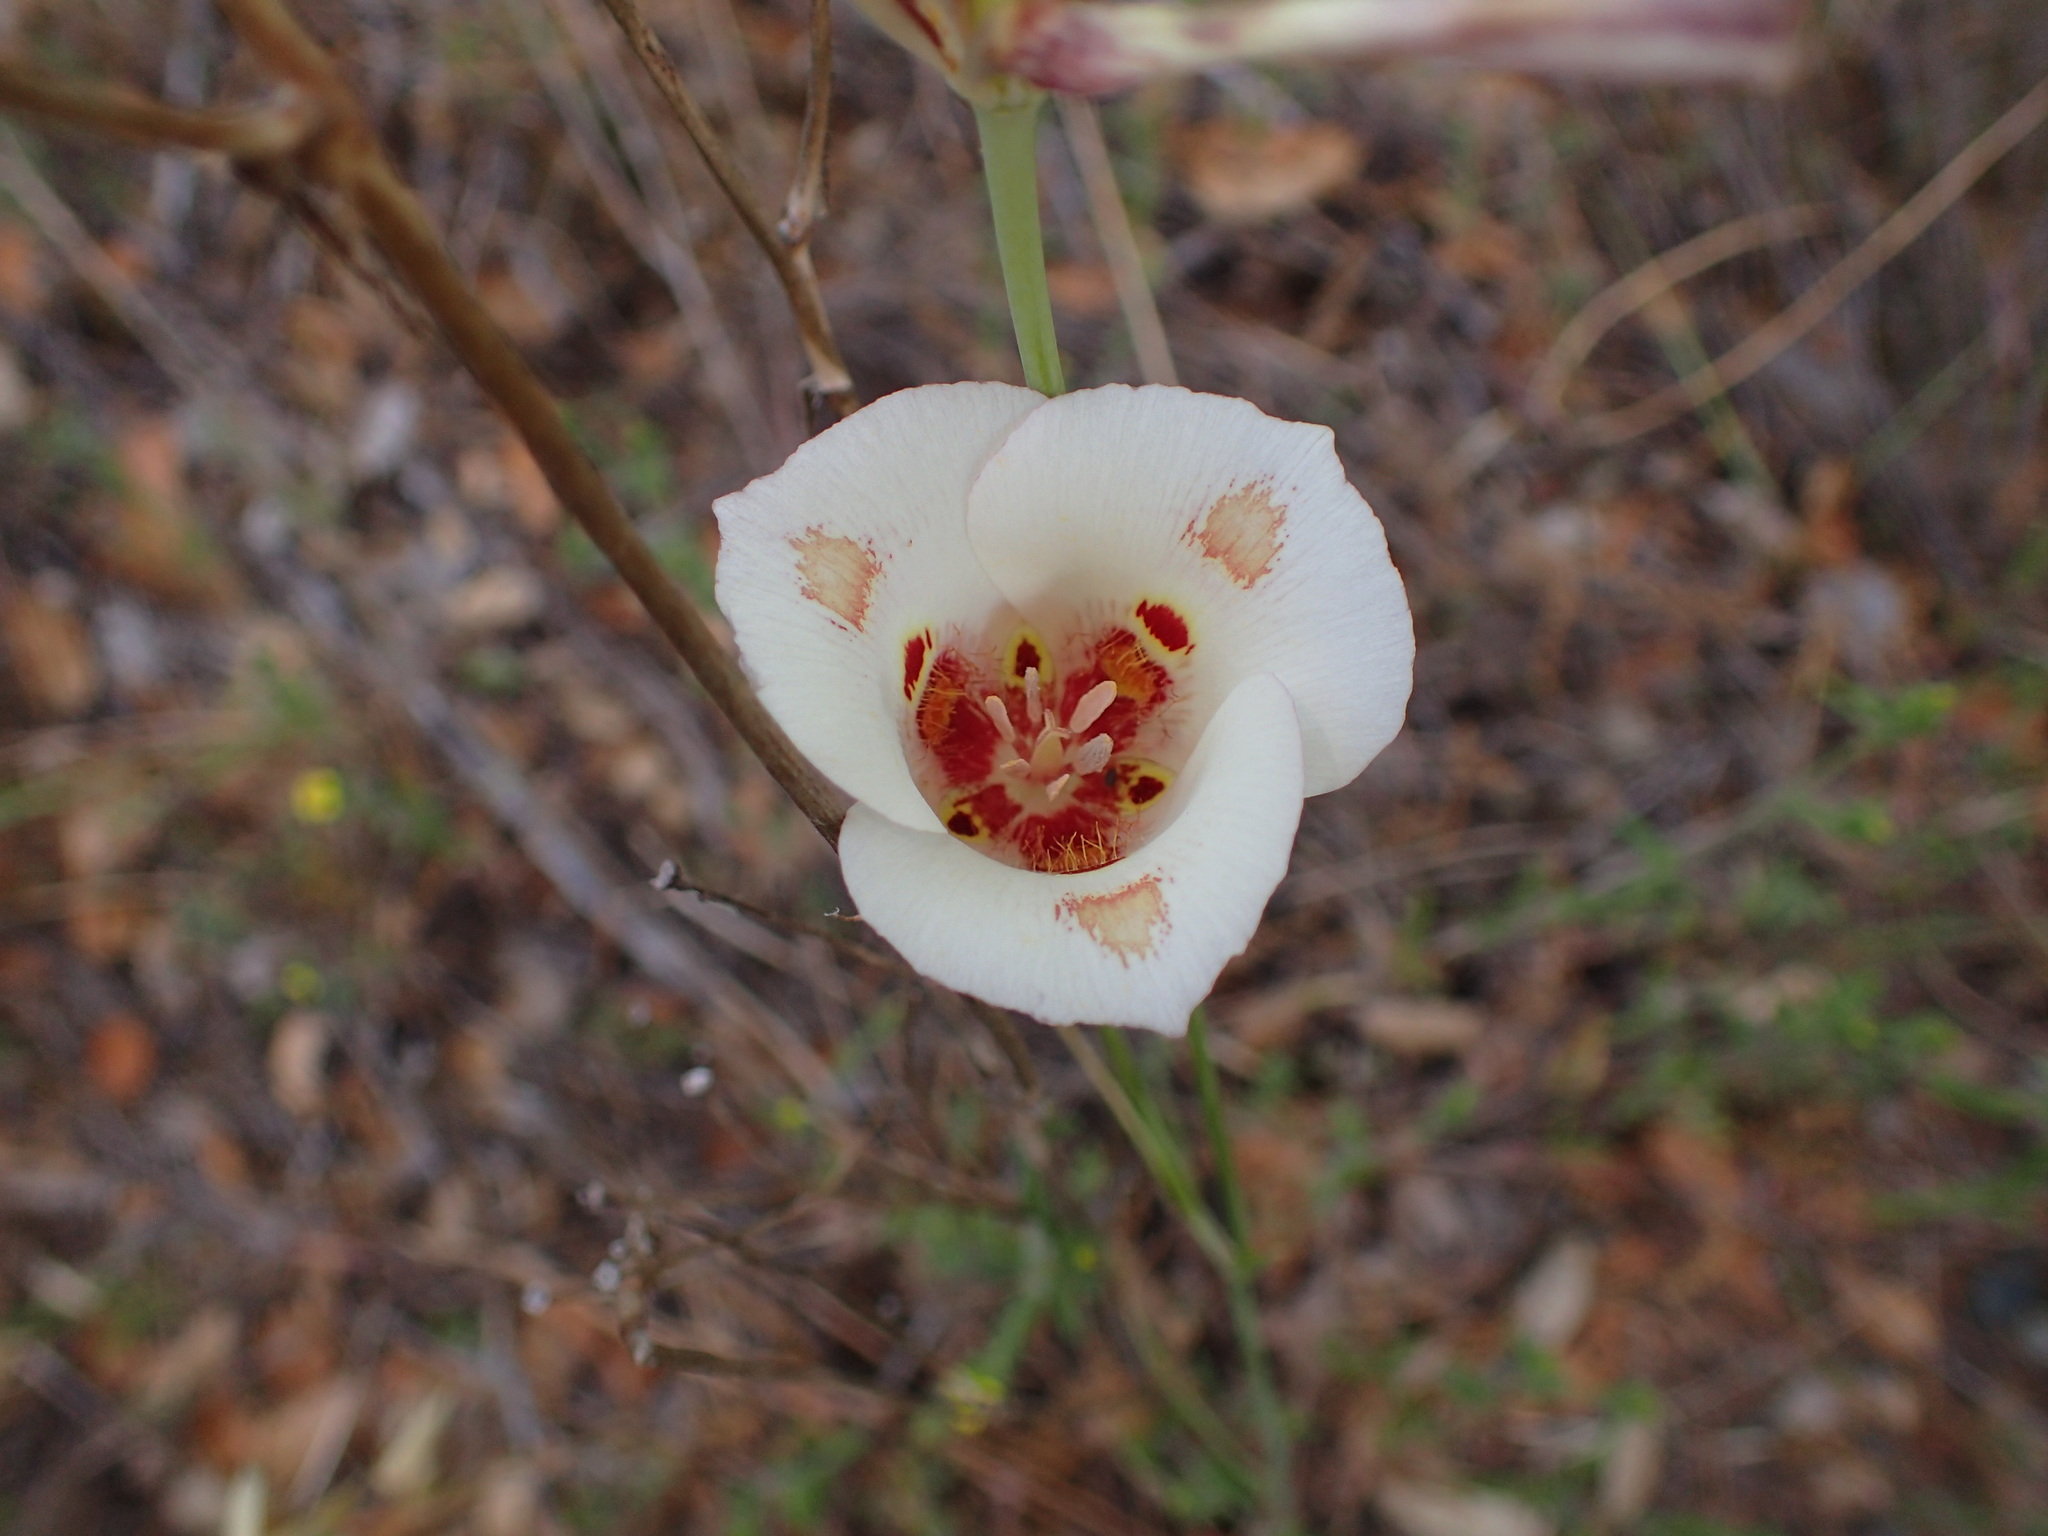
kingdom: Plantae
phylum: Tracheophyta
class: Liliopsida
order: Liliales
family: Liliaceae
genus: Calochortus
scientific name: Calochortus venustus
